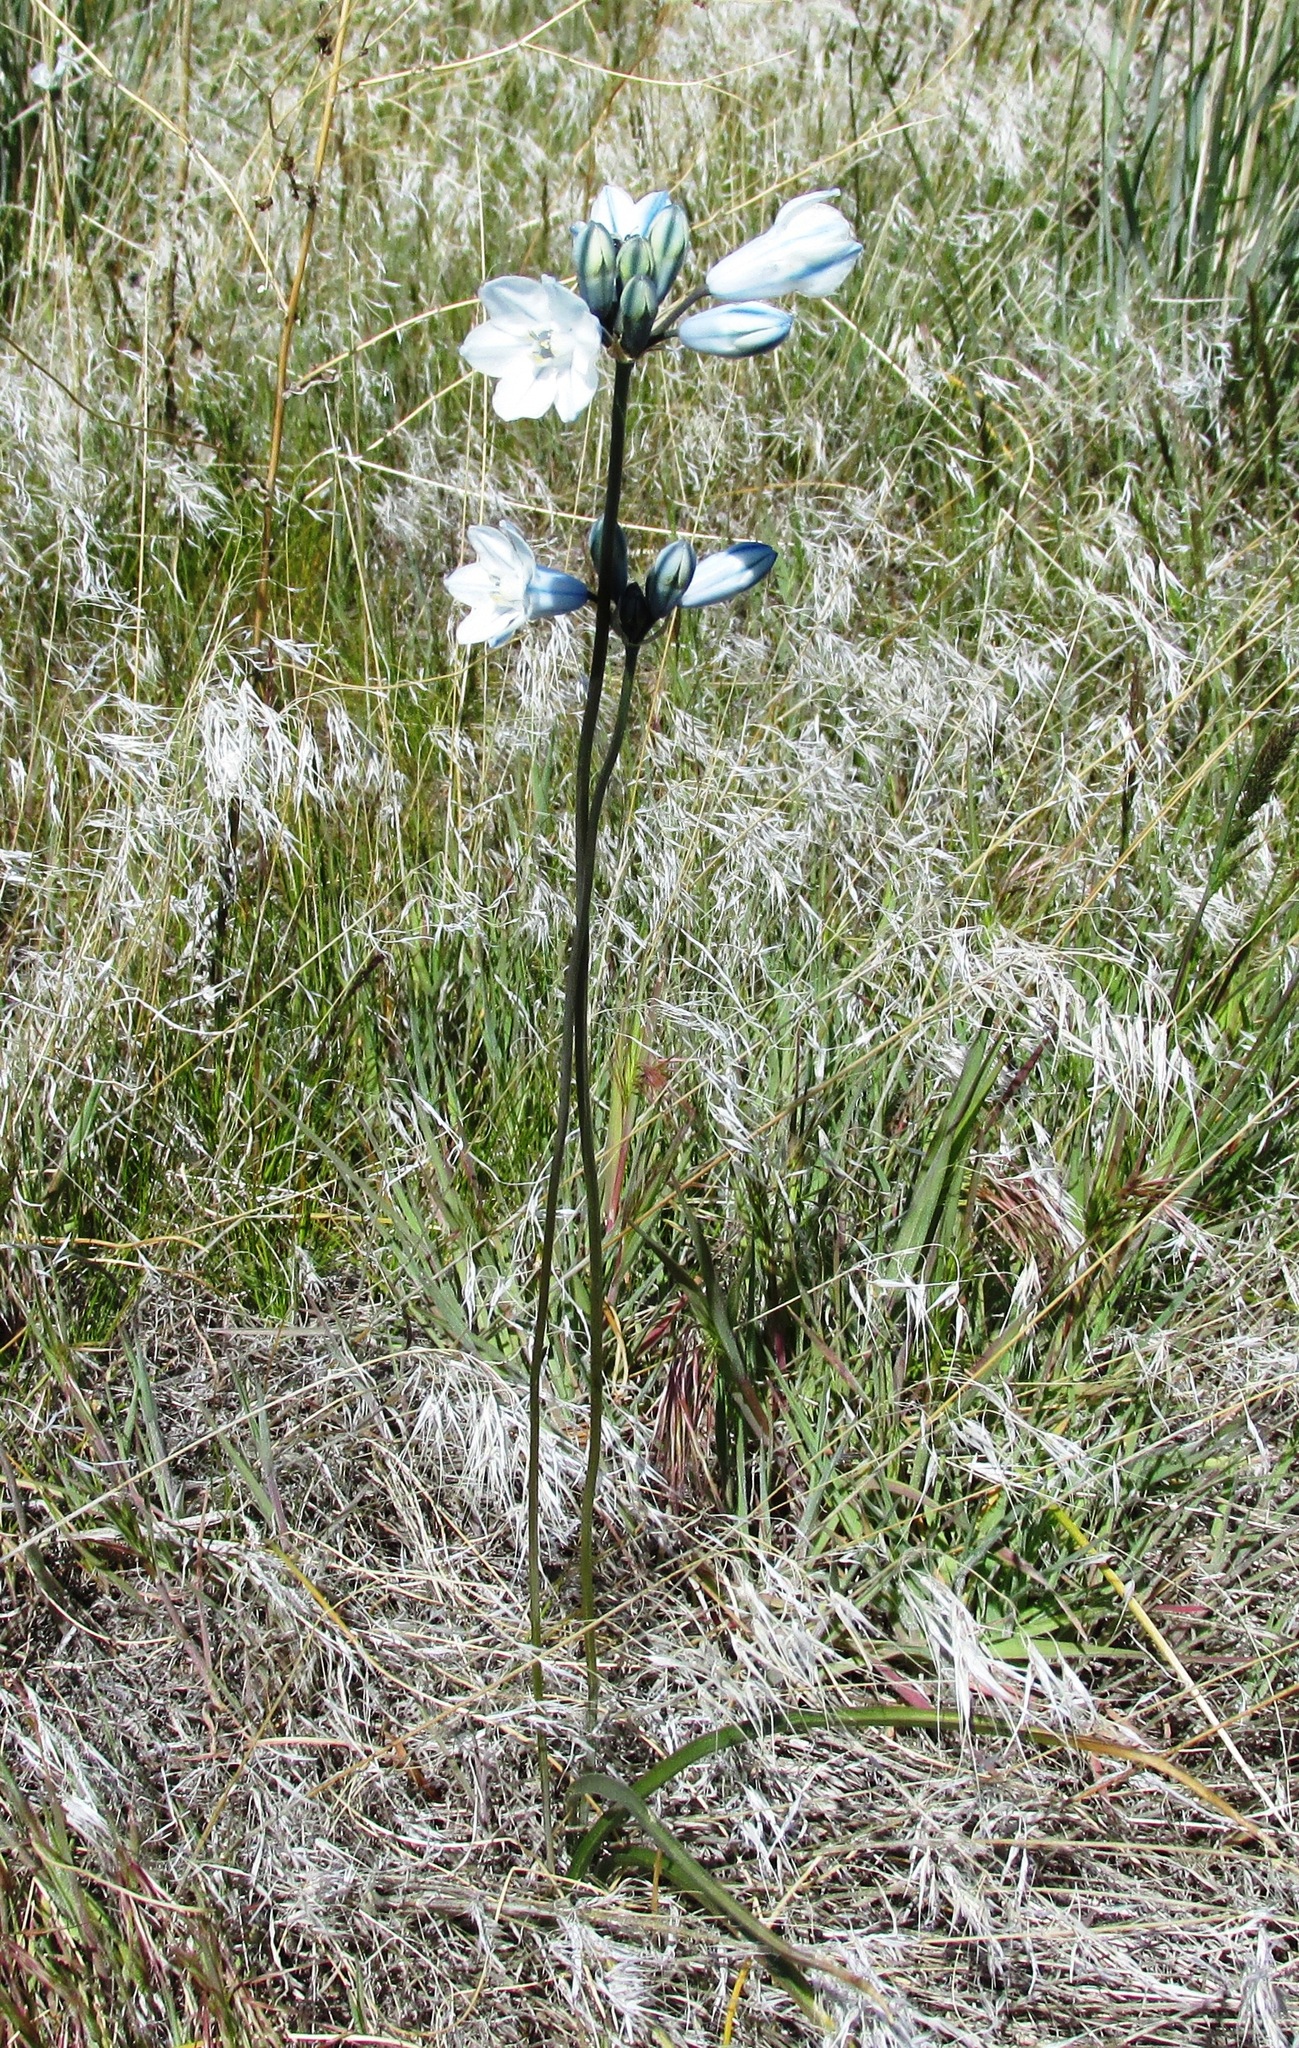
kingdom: Plantae
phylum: Tracheophyta
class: Liliopsida
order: Asparagales
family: Asparagaceae
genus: Triteleia
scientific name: Triteleia grandiflora
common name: Wild hyacinth
